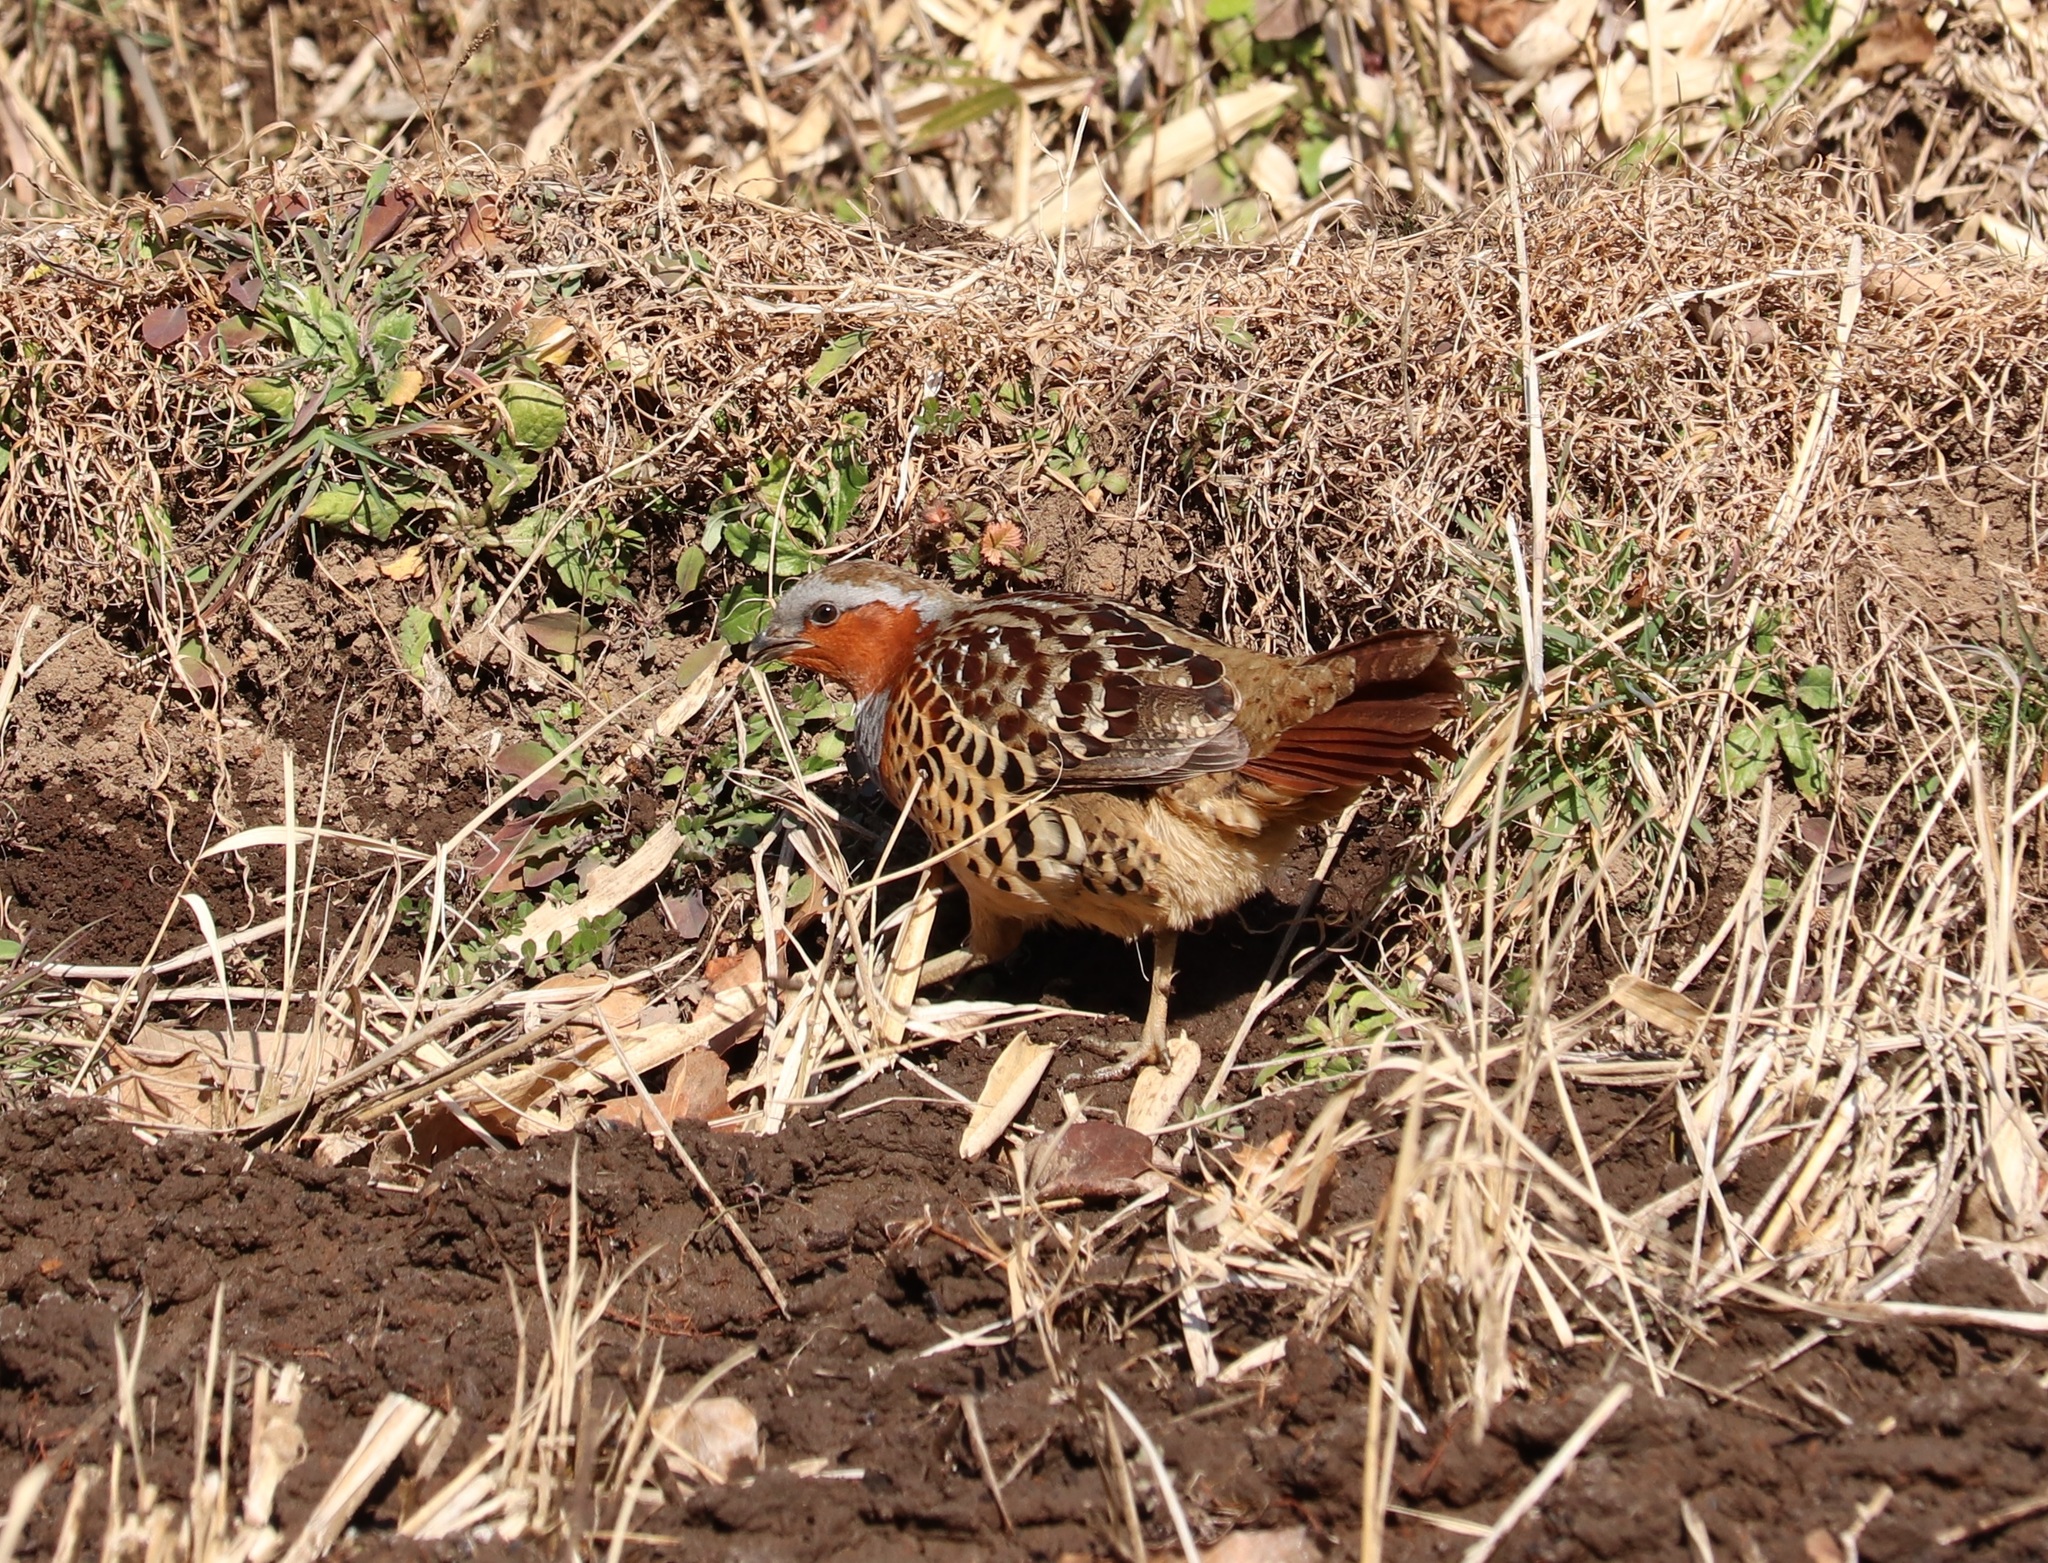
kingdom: Animalia
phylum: Chordata
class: Aves
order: Galliformes
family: Phasianidae
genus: Bambusicola
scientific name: Bambusicola thoracicus
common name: Chinese bamboo partridge
